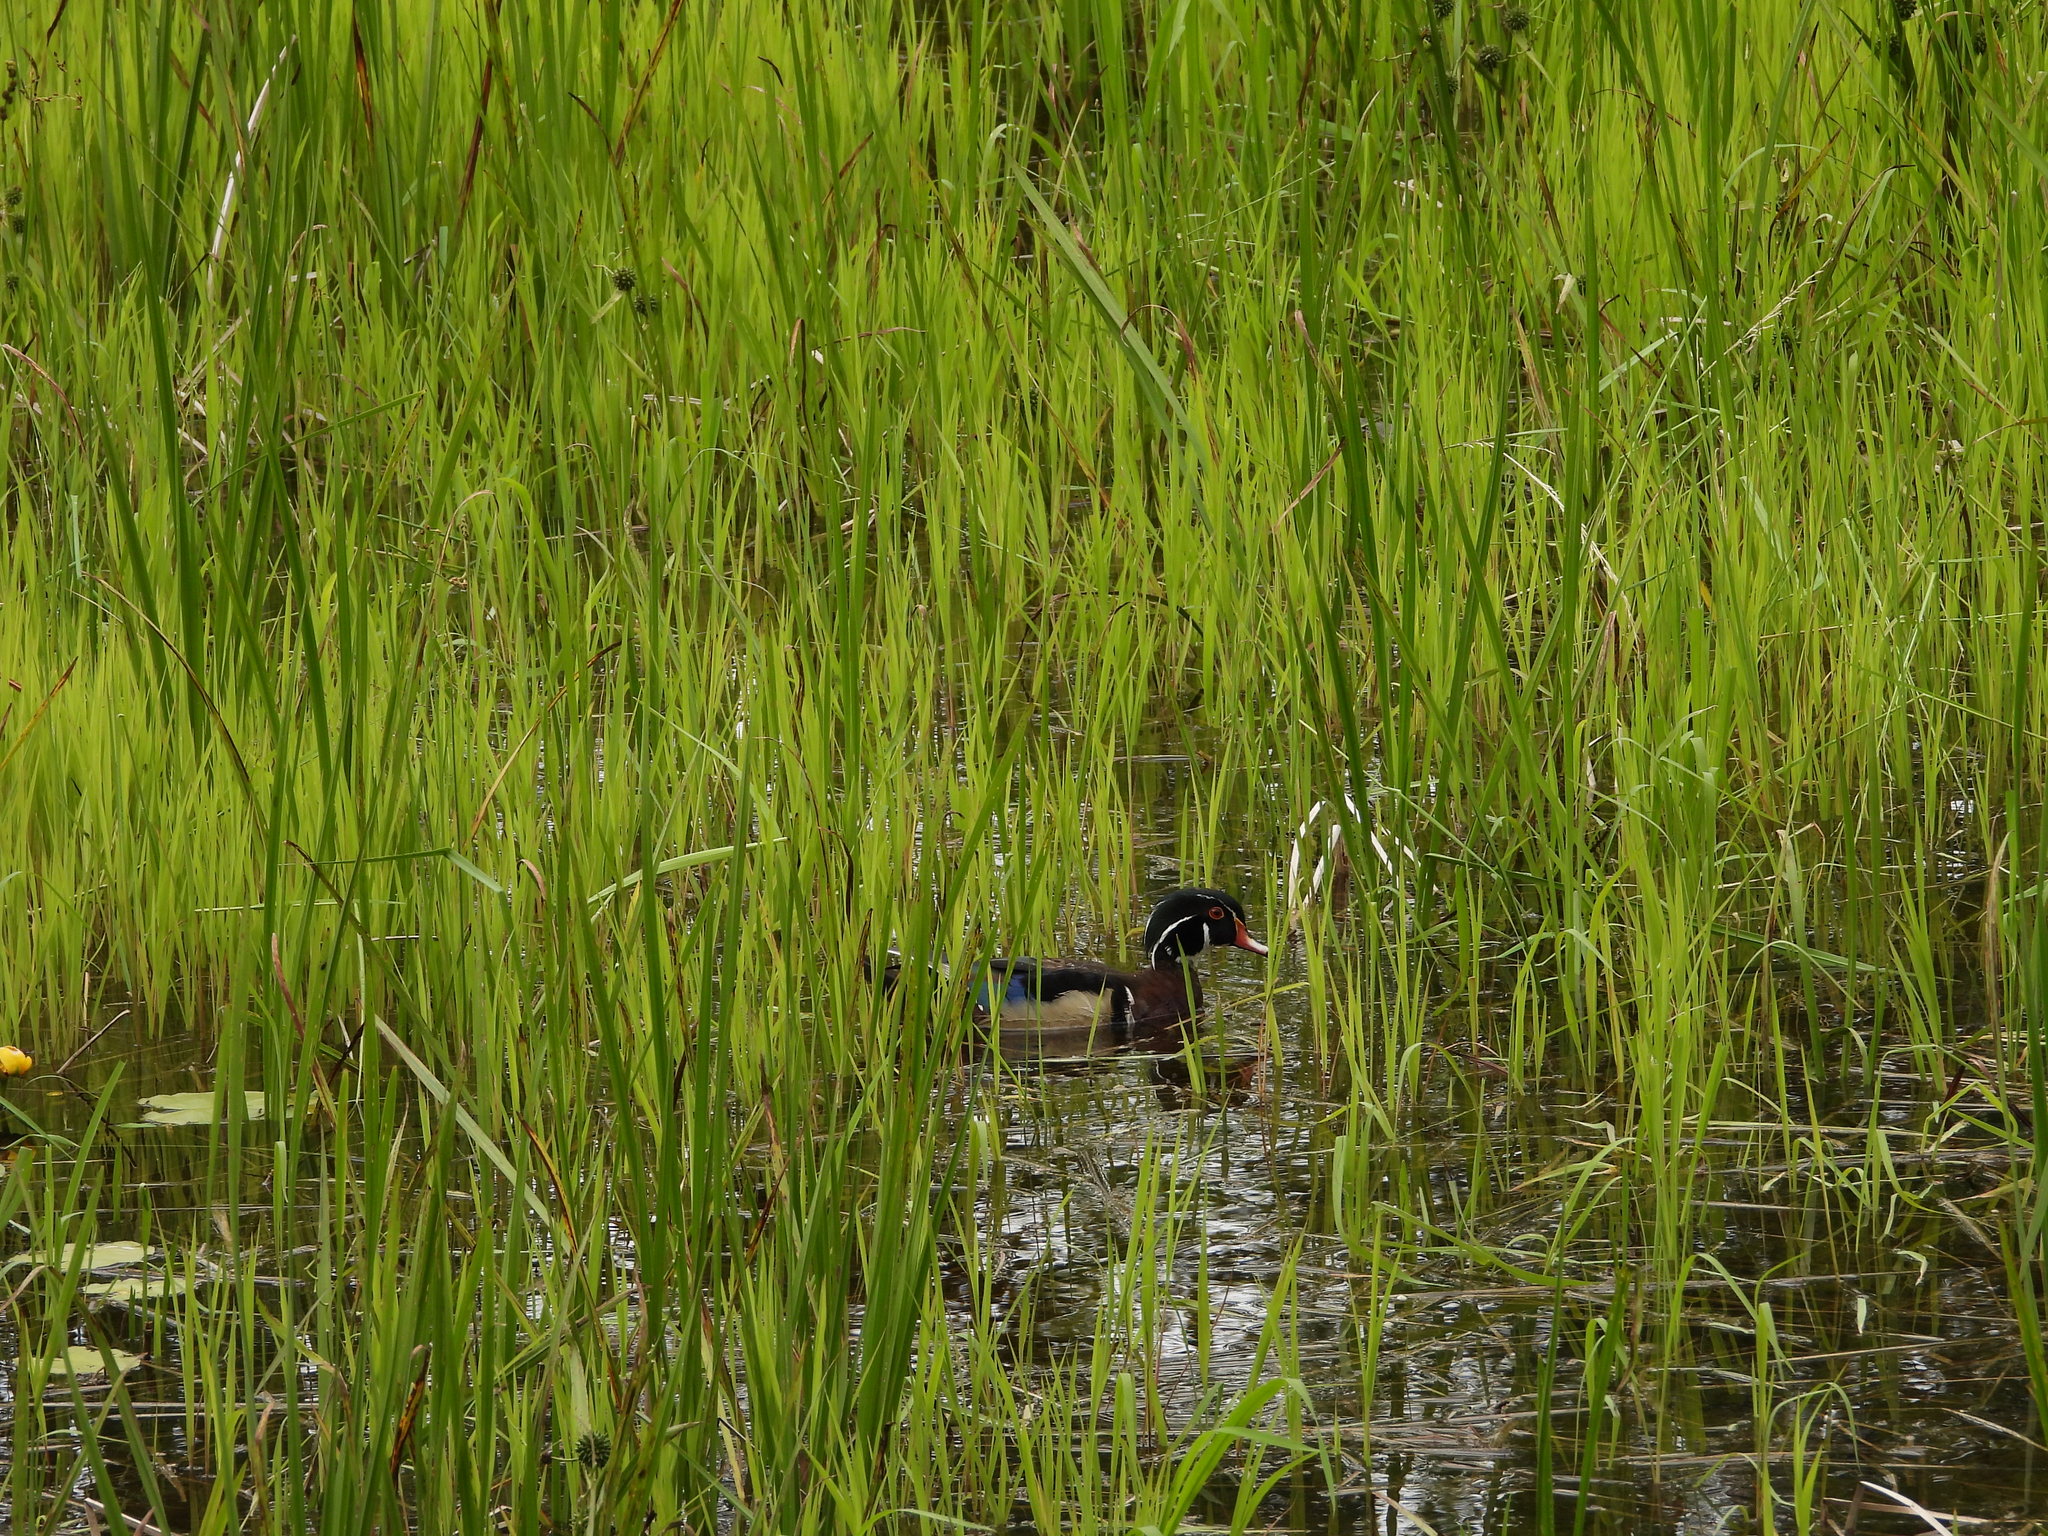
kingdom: Animalia
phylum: Chordata
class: Aves
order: Anseriformes
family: Anatidae
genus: Aix
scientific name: Aix sponsa
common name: Wood duck
